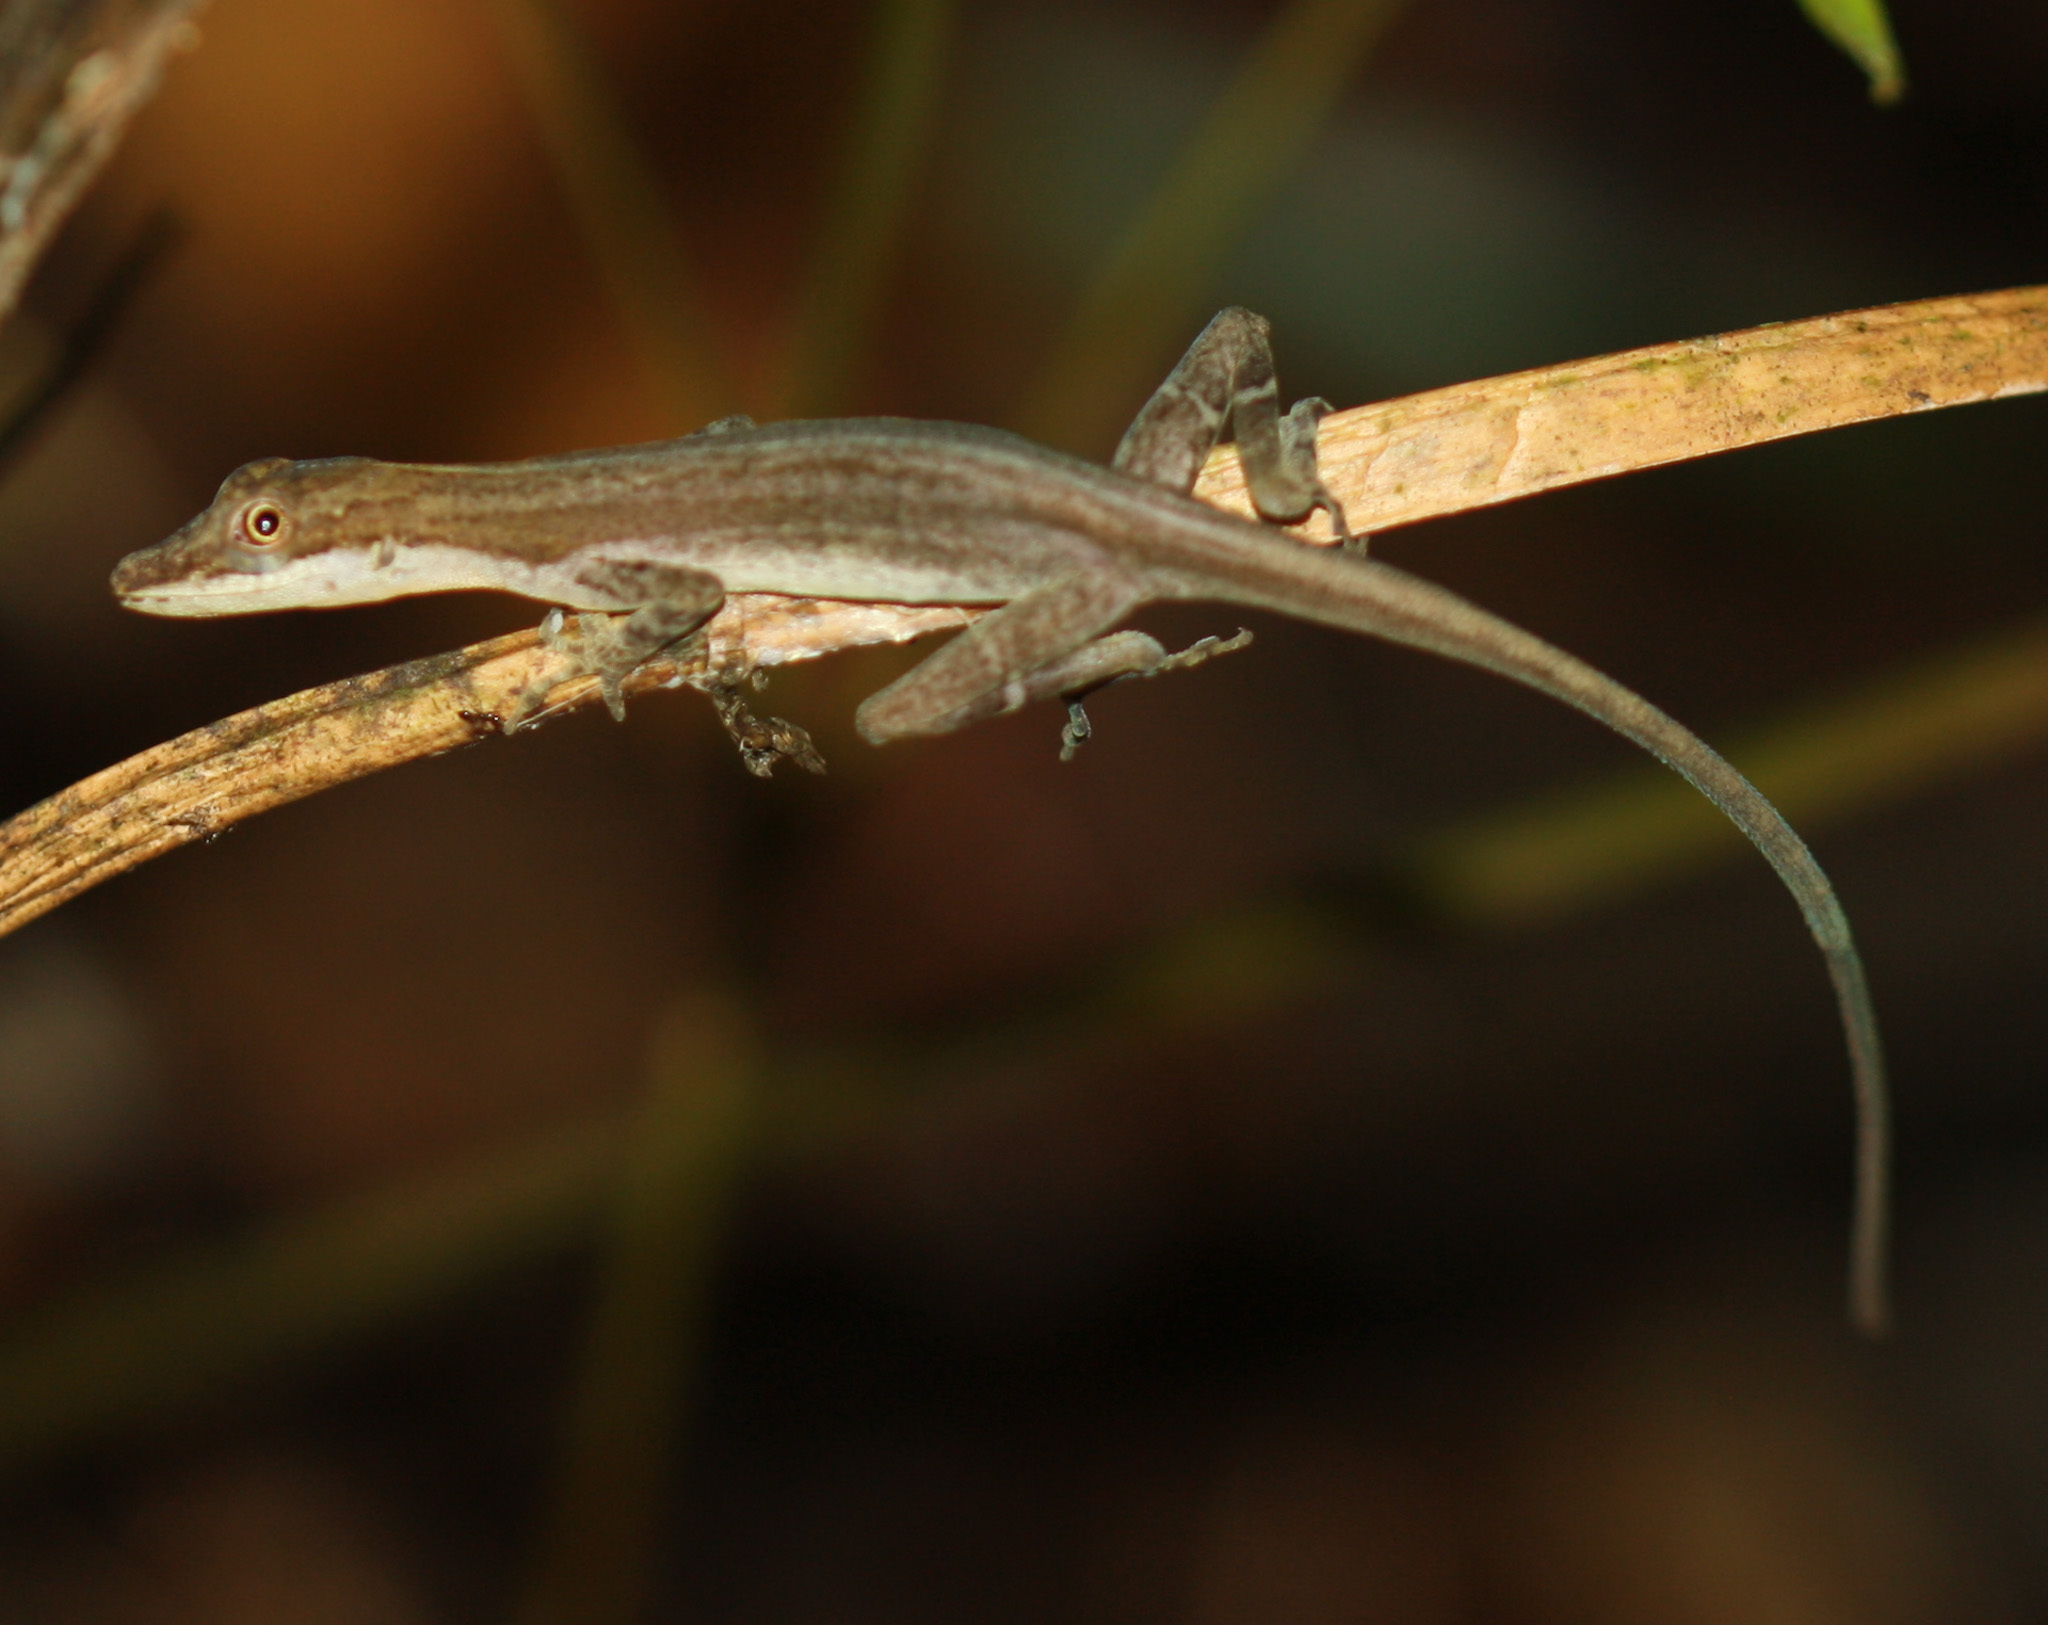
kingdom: Animalia
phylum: Chordata
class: Squamata
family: Dactyloidae
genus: Anolis
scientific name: Anolis limifrons
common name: Border anole
